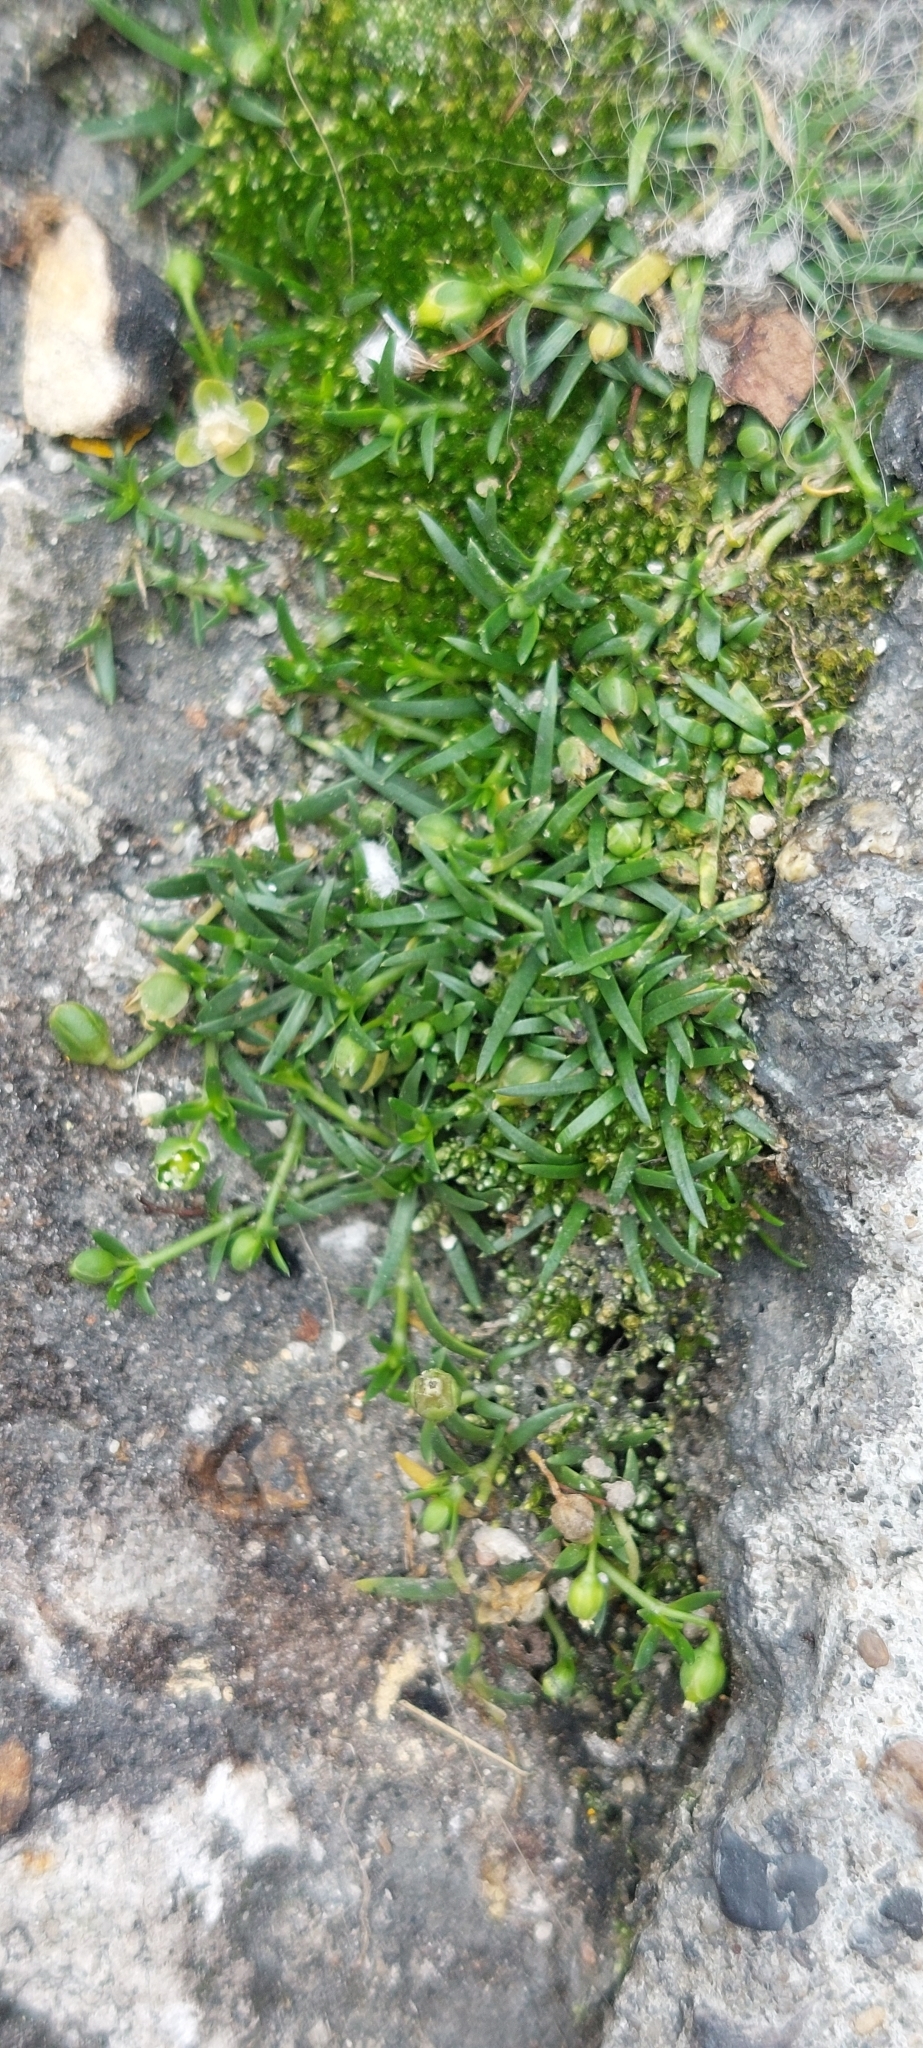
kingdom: Plantae
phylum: Tracheophyta
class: Magnoliopsida
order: Caryophyllales
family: Caryophyllaceae
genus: Sagina
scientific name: Sagina procumbens
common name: Procumbent pearlwort
